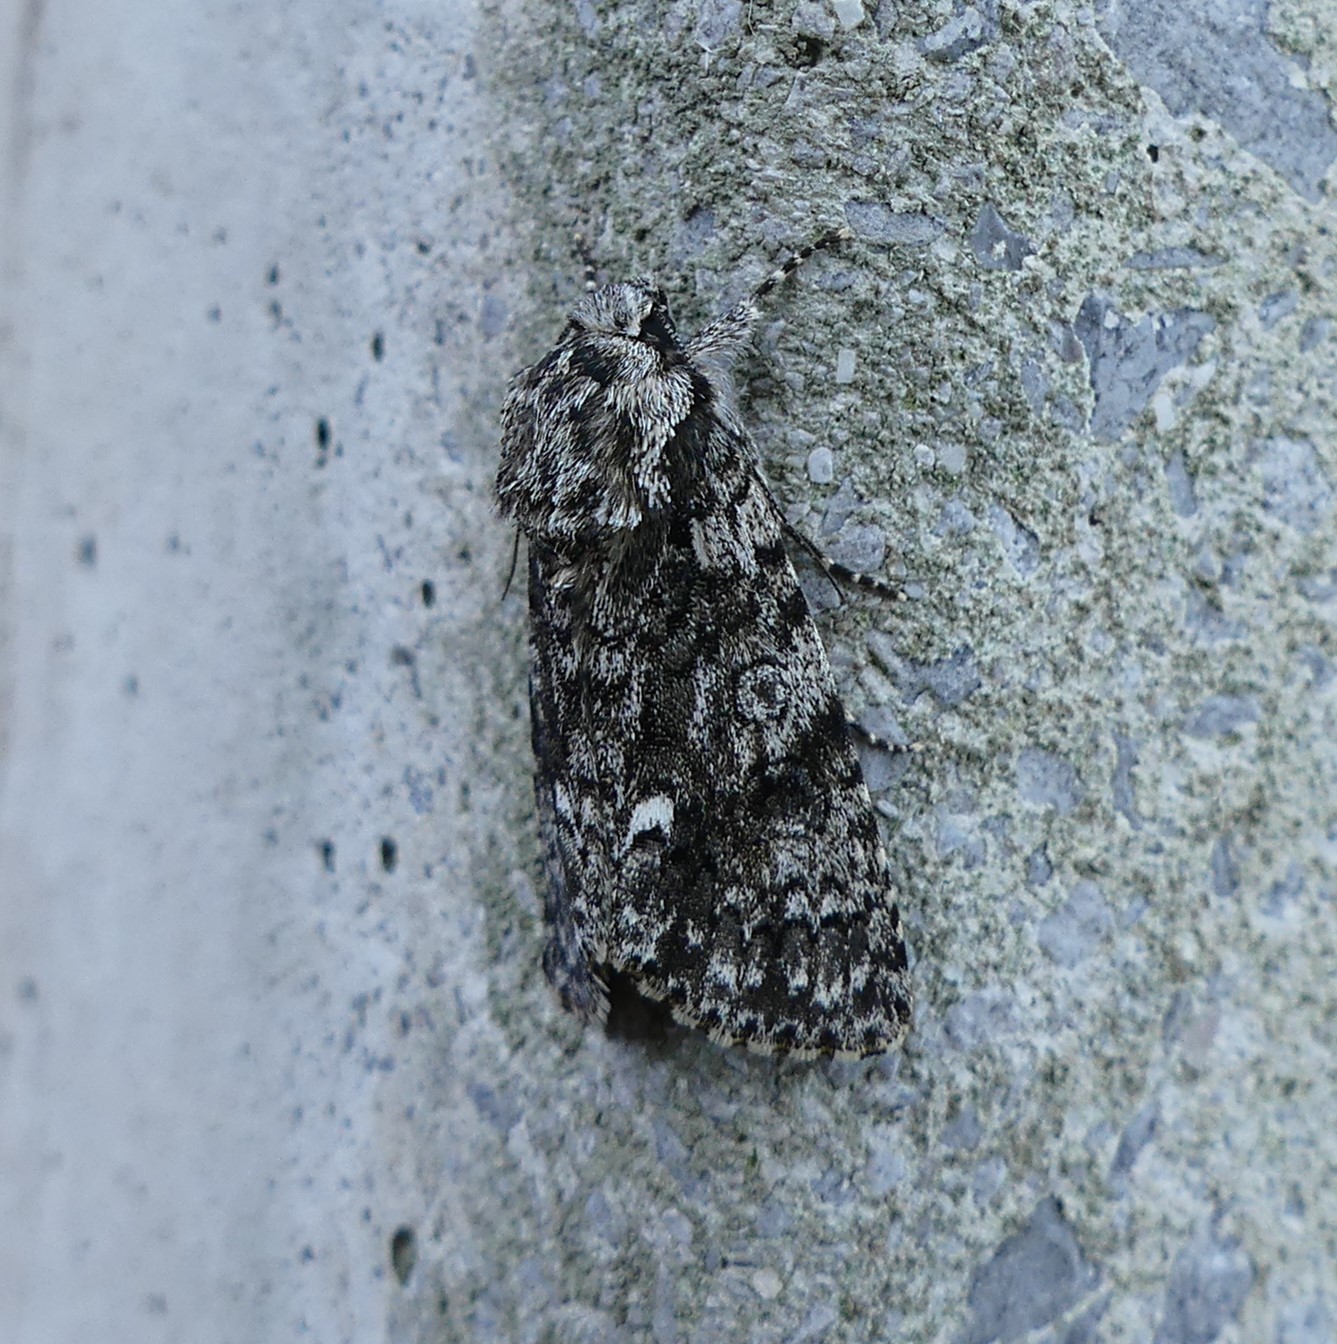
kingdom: Animalia
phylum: Arthropoda
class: Insecta
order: Lepidoptera
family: Noctuidae
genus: Acronicta
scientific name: Acronicta rumicis
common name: Knot grass
